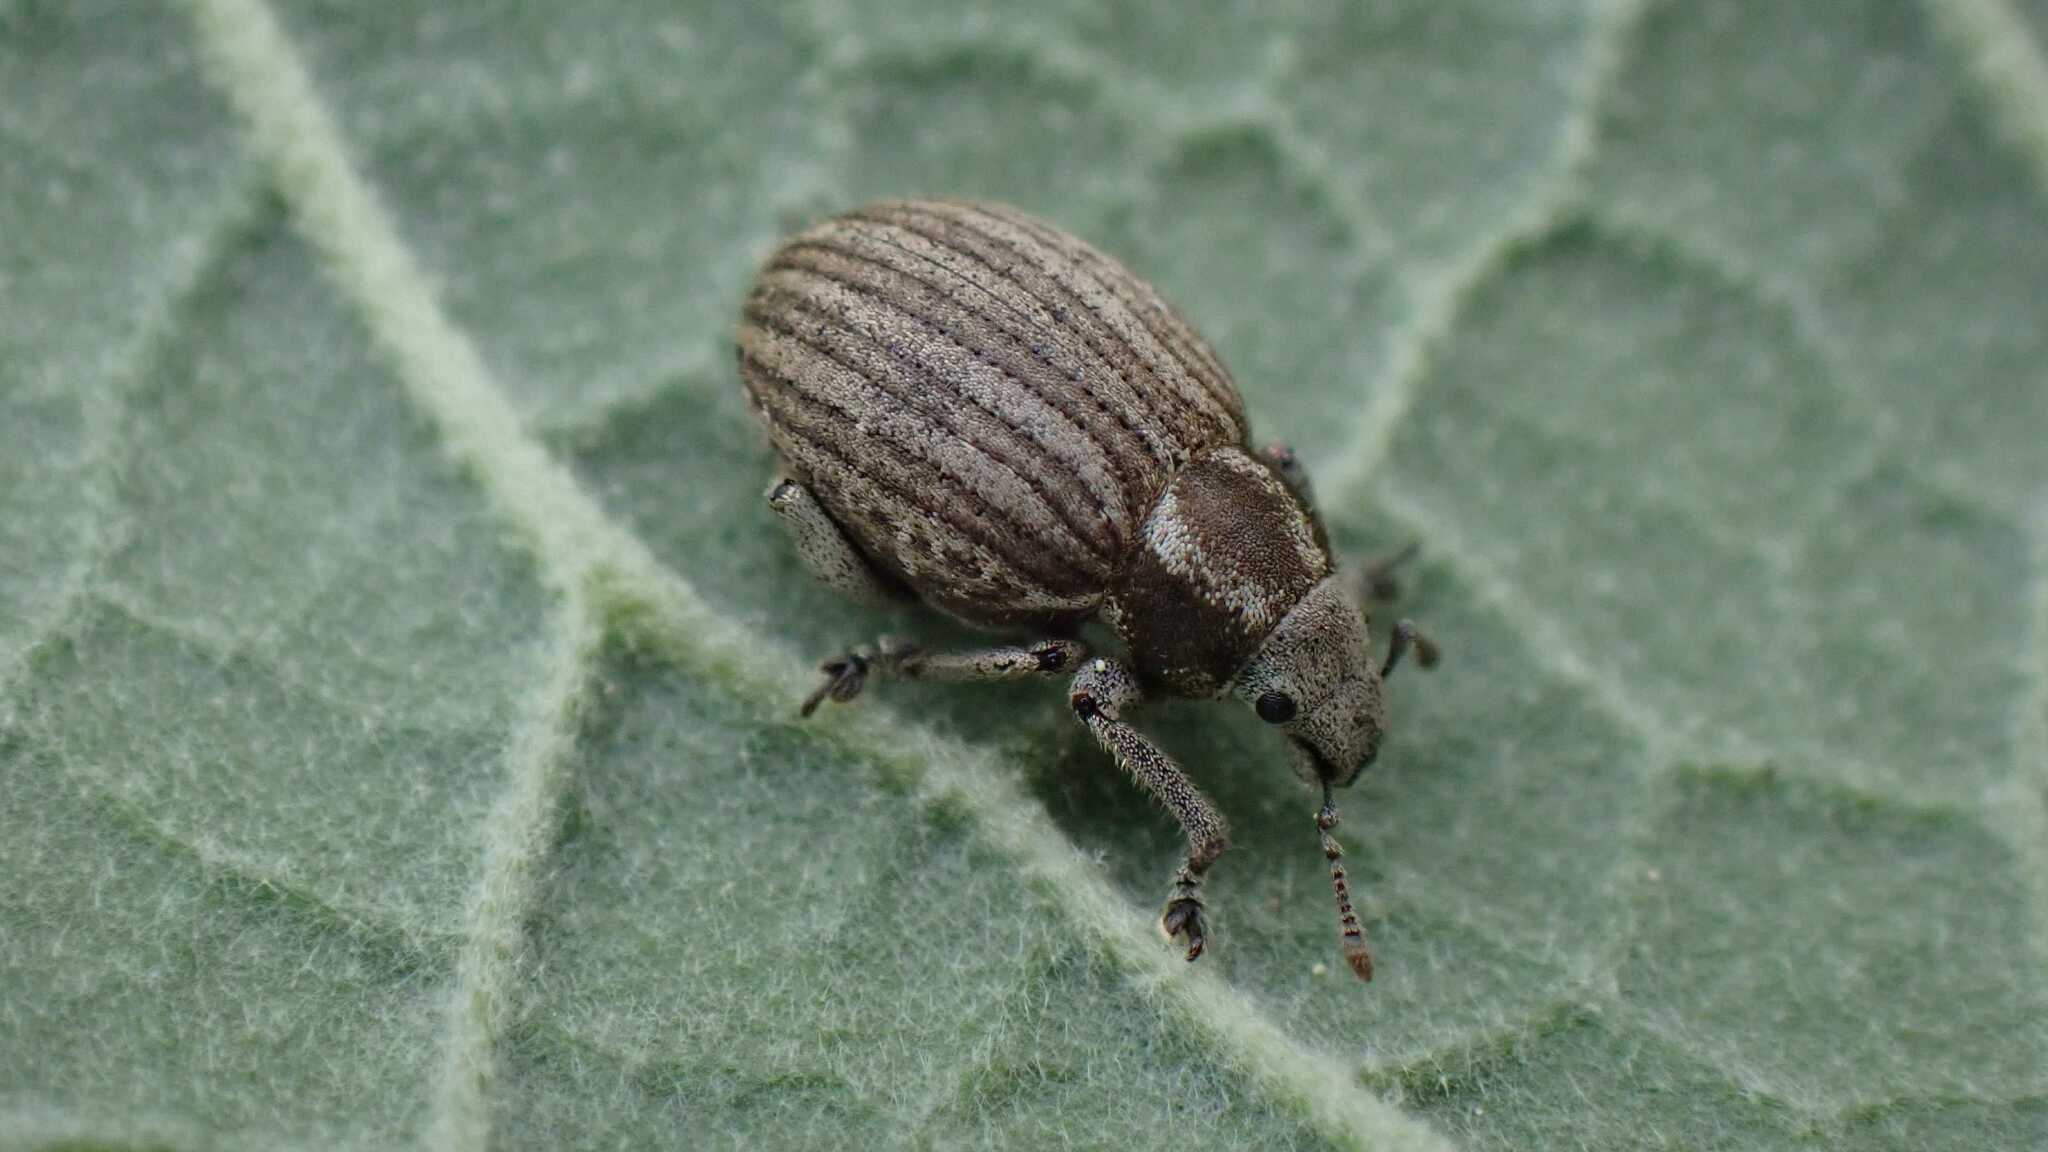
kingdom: Animalia
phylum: Arthropoda
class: Insecta
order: Coleoptera
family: Curculionidae
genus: Philopedon
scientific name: Philopedon plagiatum
